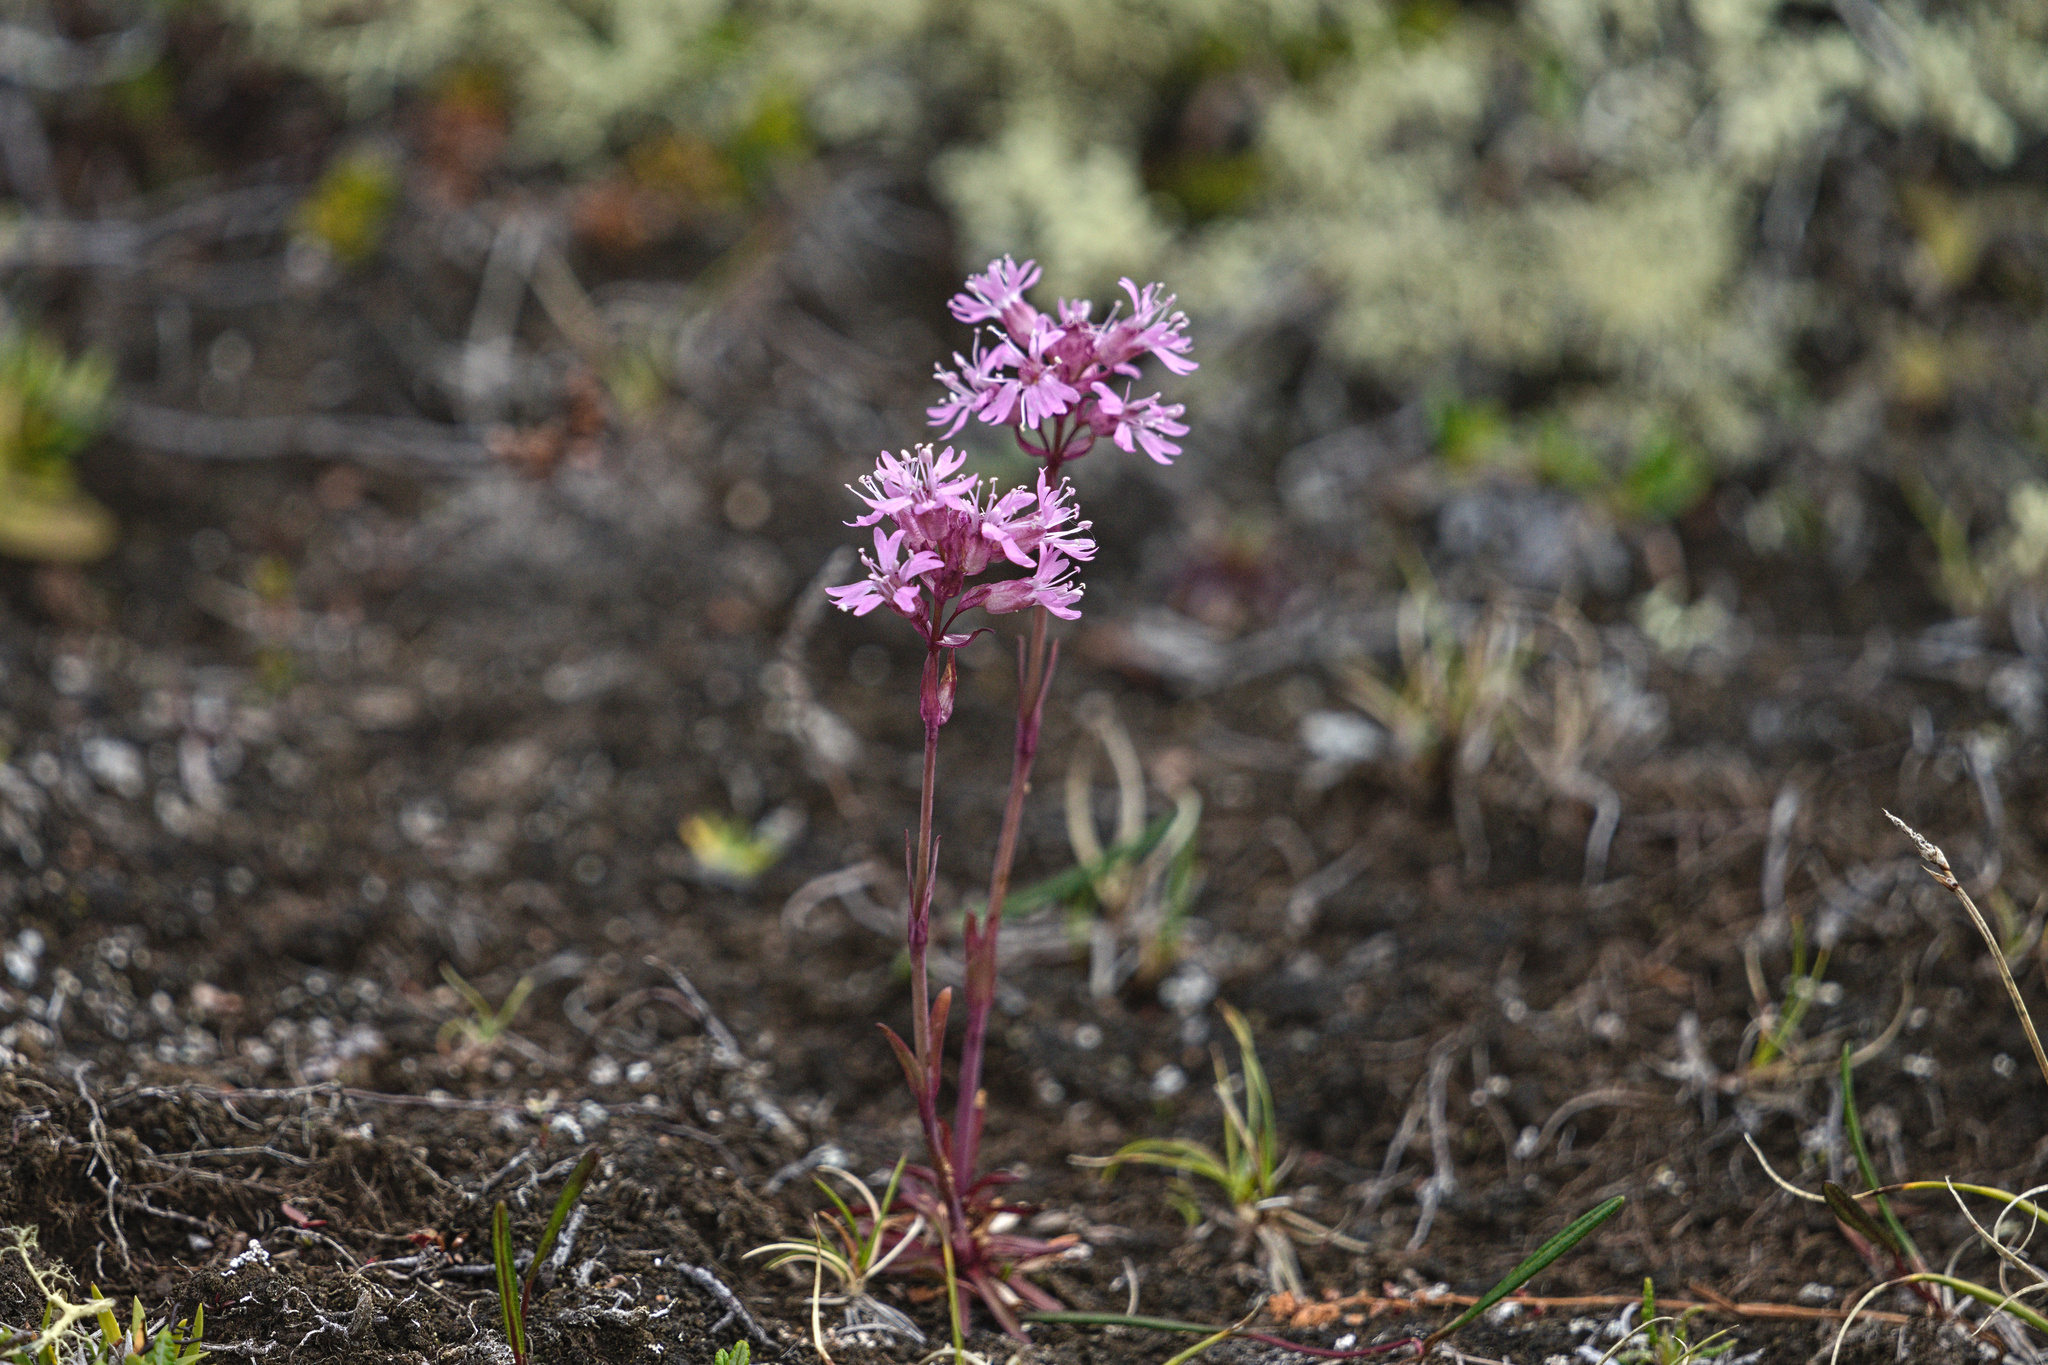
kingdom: Plantae
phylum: Tracheophyta
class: Magnoliopsida
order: Caryophyllales
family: Caryophyllaceae
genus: Viscaria
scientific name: Viscaria alpina
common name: Alpine campion
